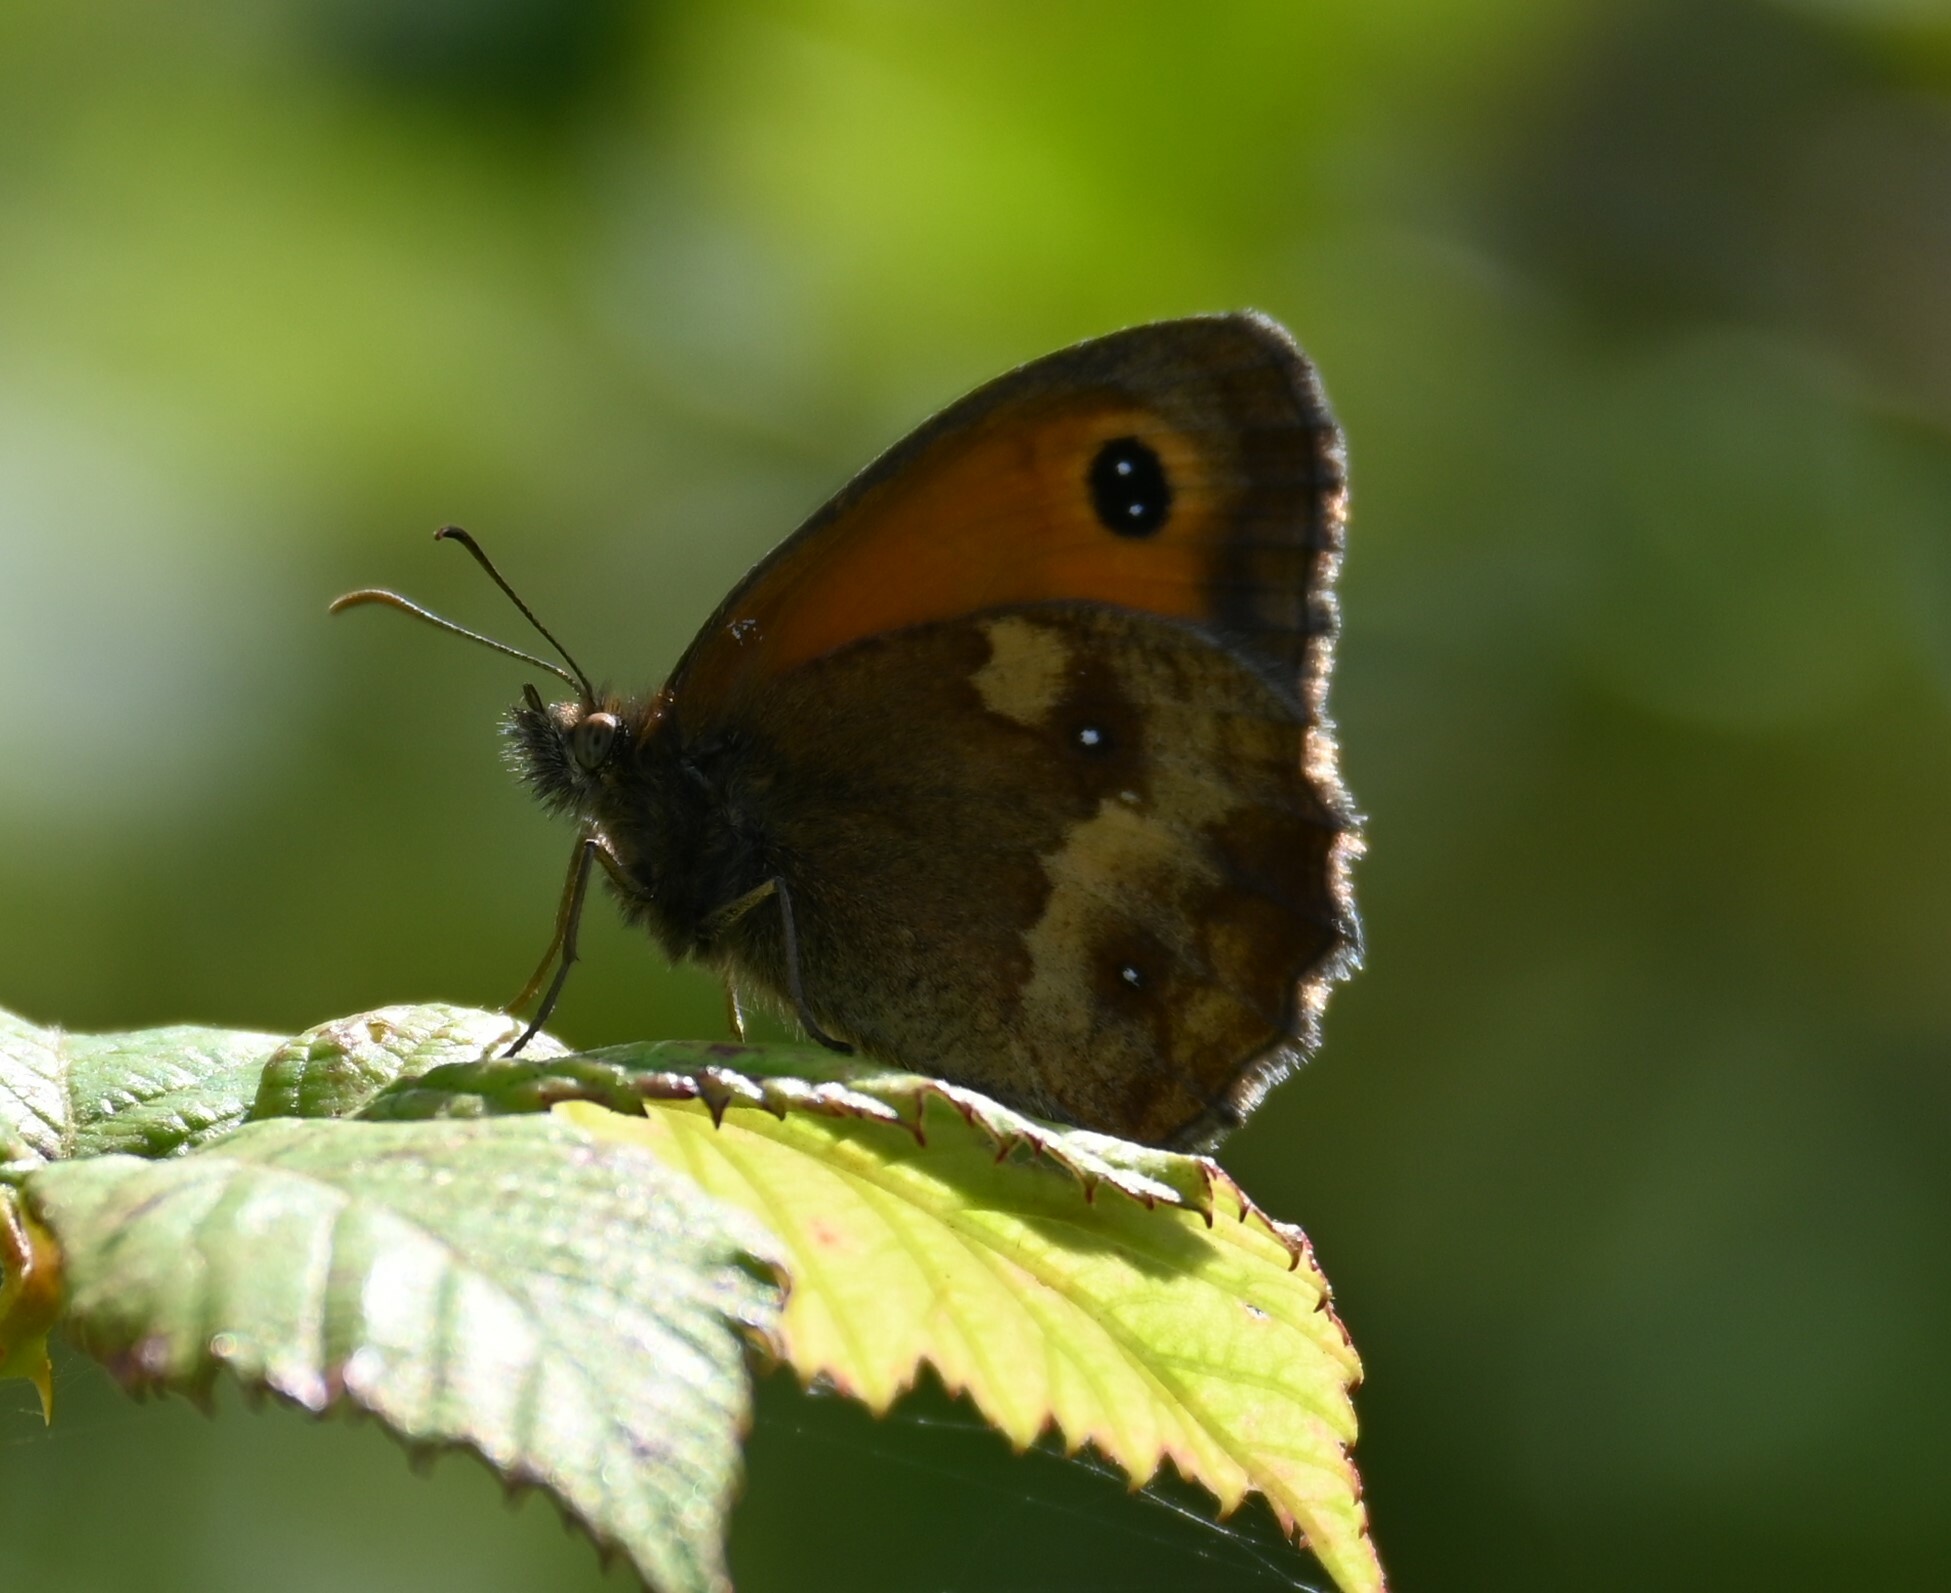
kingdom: Animalia
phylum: Arthropoda
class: Insecta
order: Lepidoptera
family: Nymphalidae
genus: Pyronia
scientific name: Pyronia tithonus
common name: Gatekeeper
